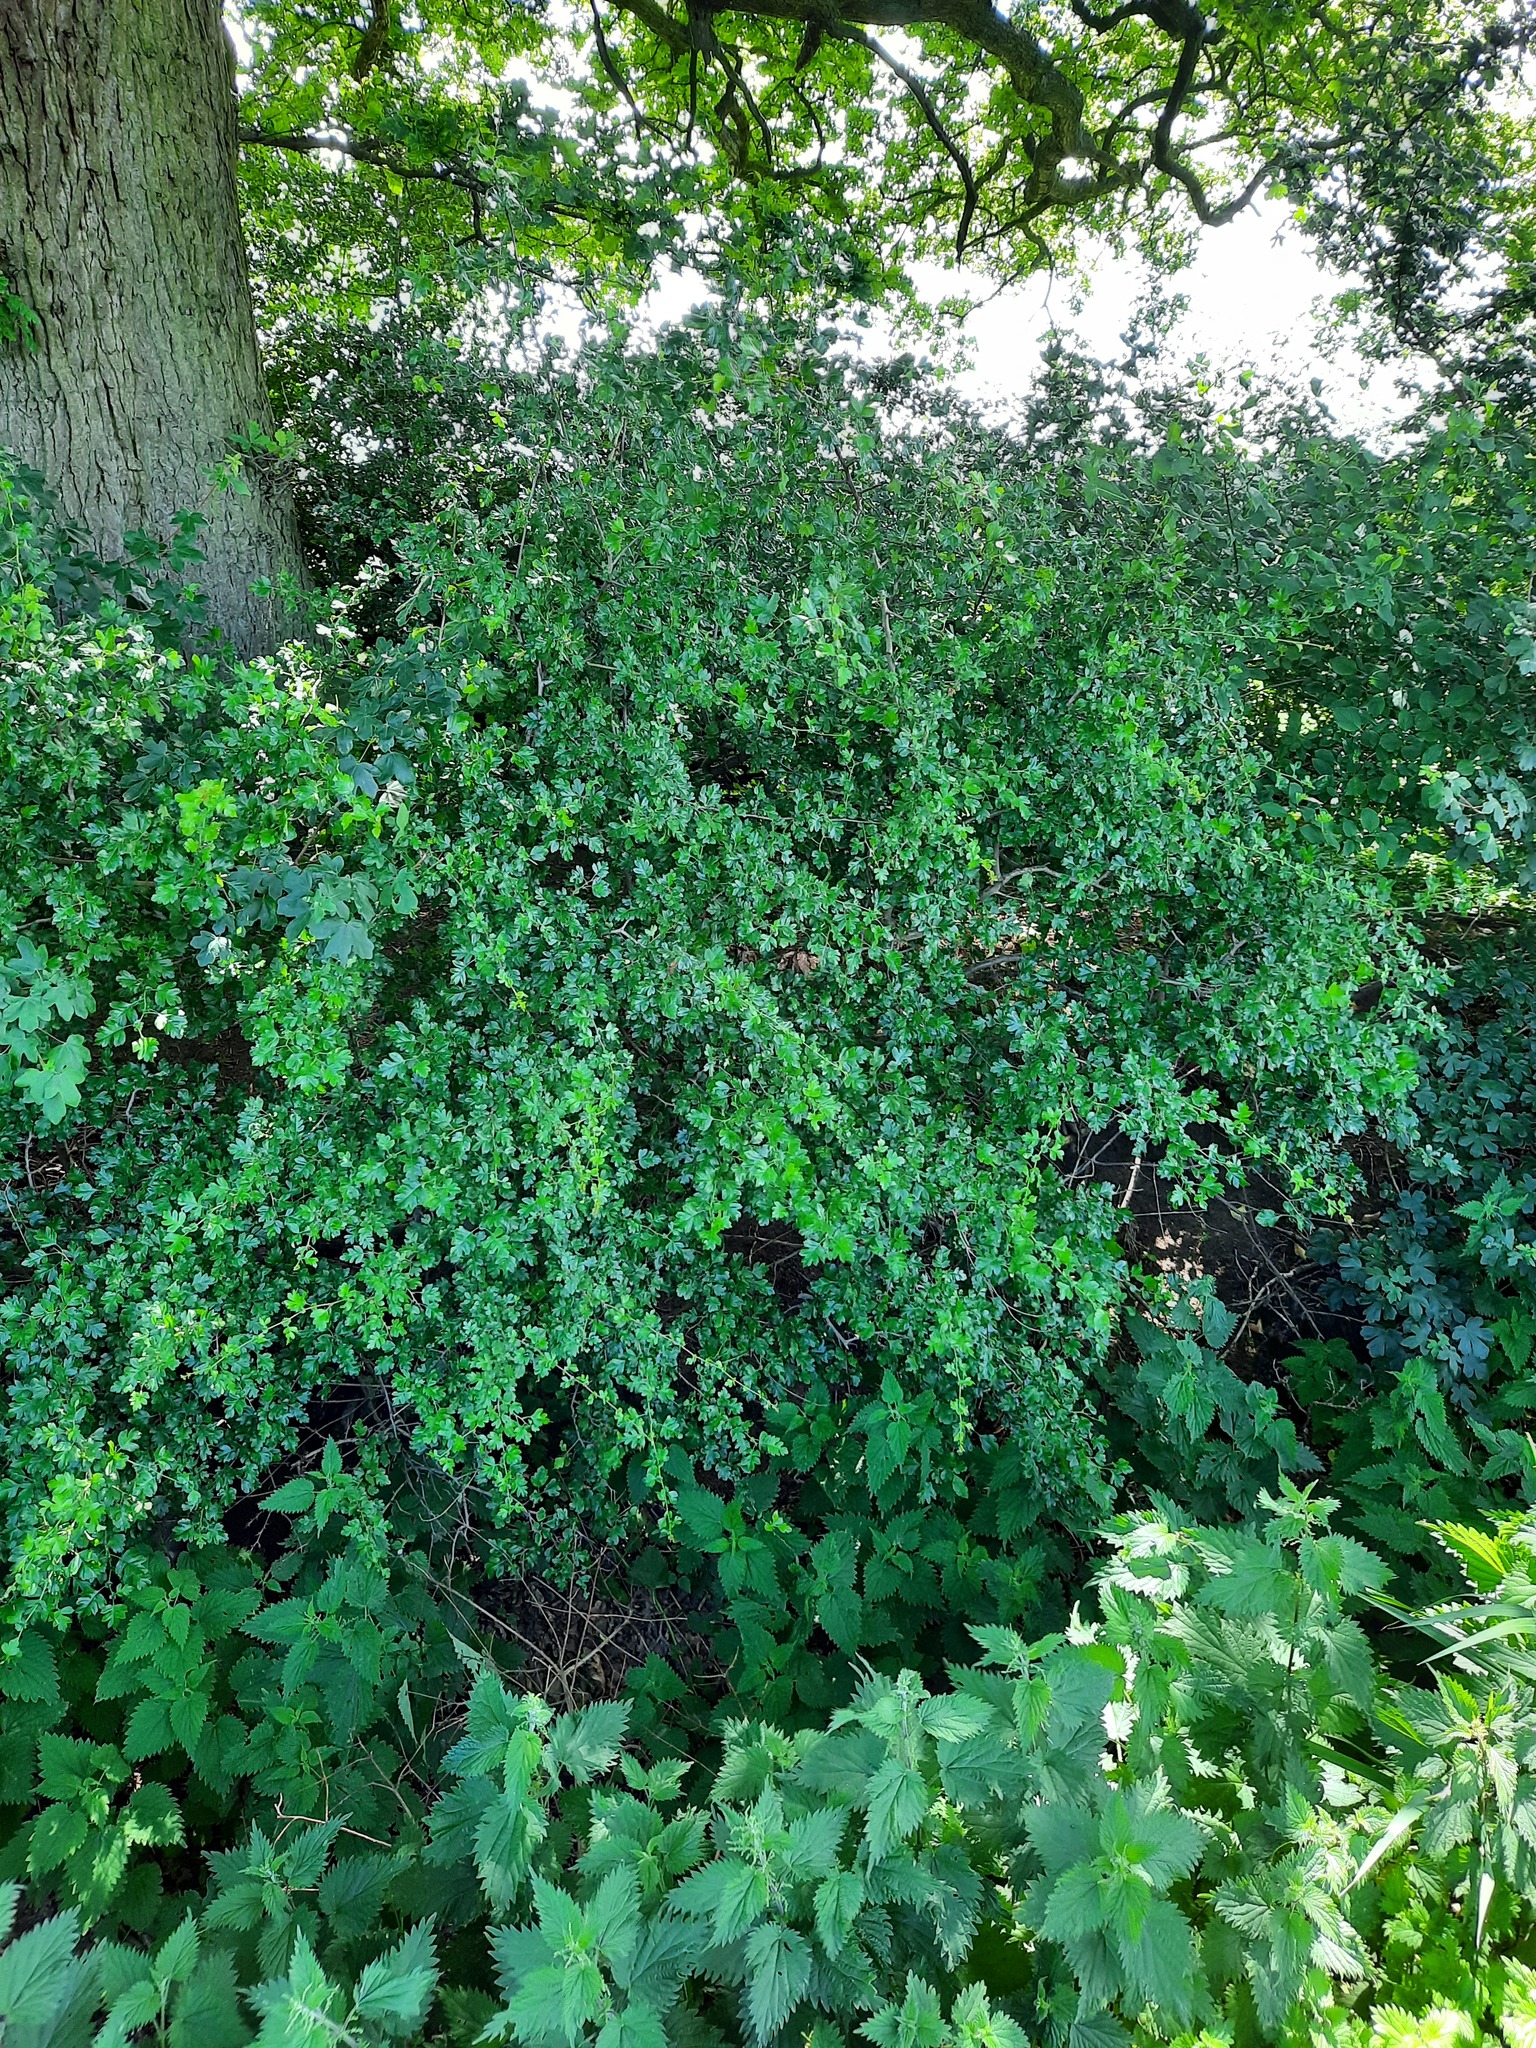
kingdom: Plantae
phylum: Tracheophyta
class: Magnoliopsida
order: Rosales
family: Rosaceae
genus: Crataegus
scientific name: Crataegus monogyna
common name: Hawthorn
